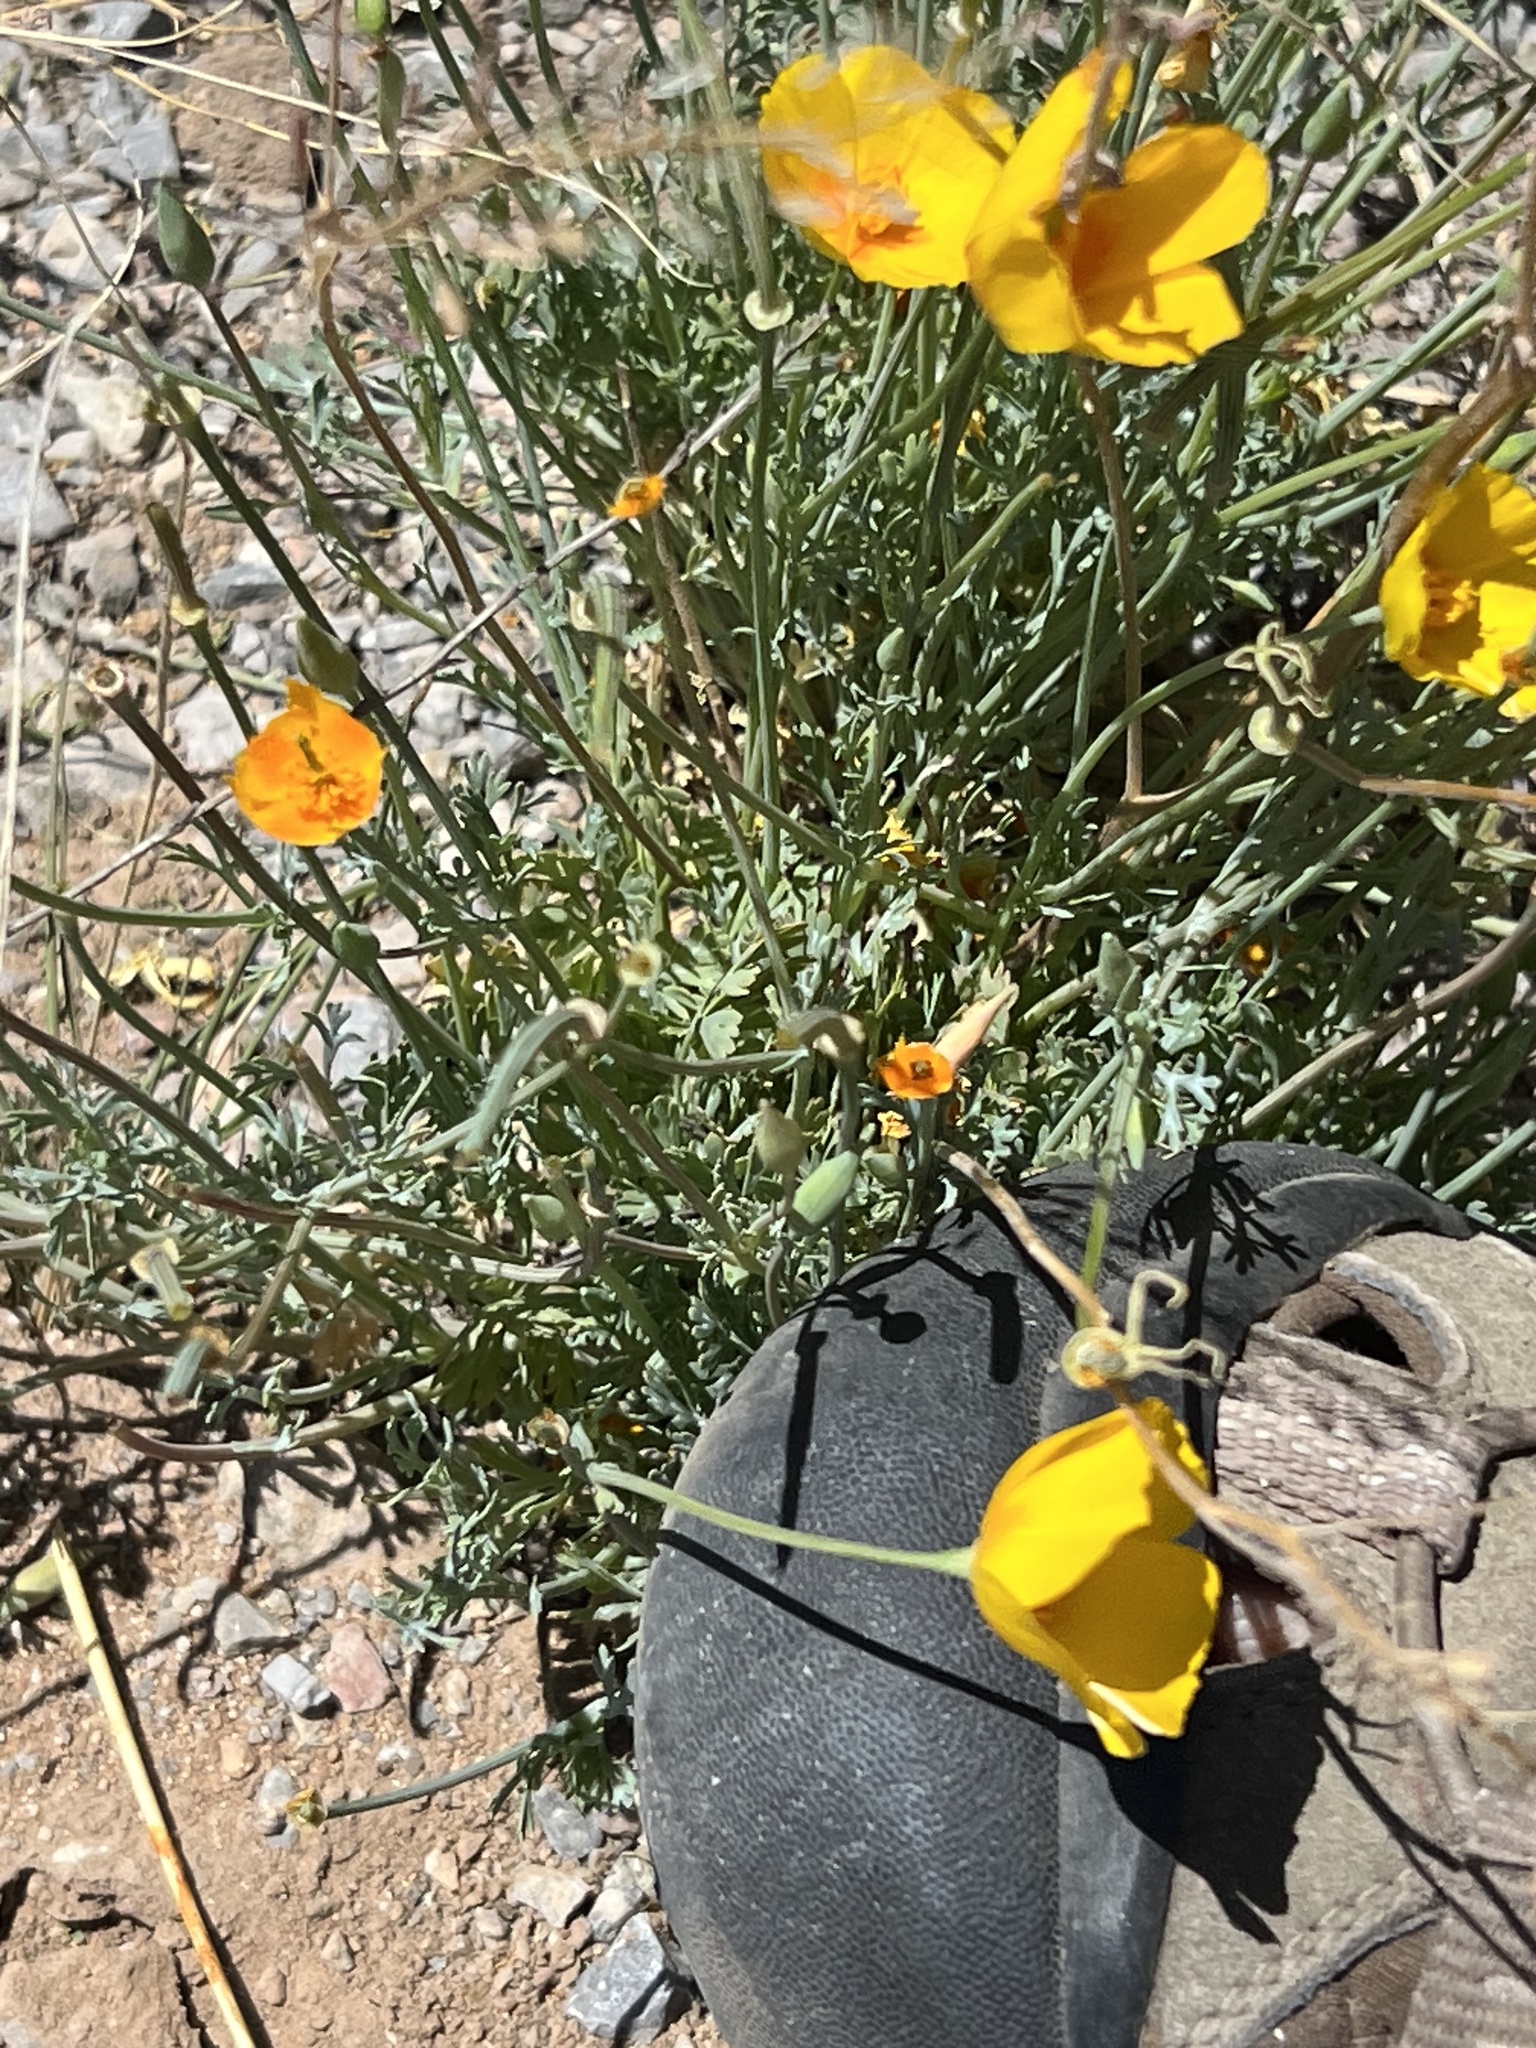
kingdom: Plantae
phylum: Tracheophyta
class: Magnoliopsida
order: Ranunculales
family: Papaveraceae
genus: Eschscholzia
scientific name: Eschscholzia californica
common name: California poppy
